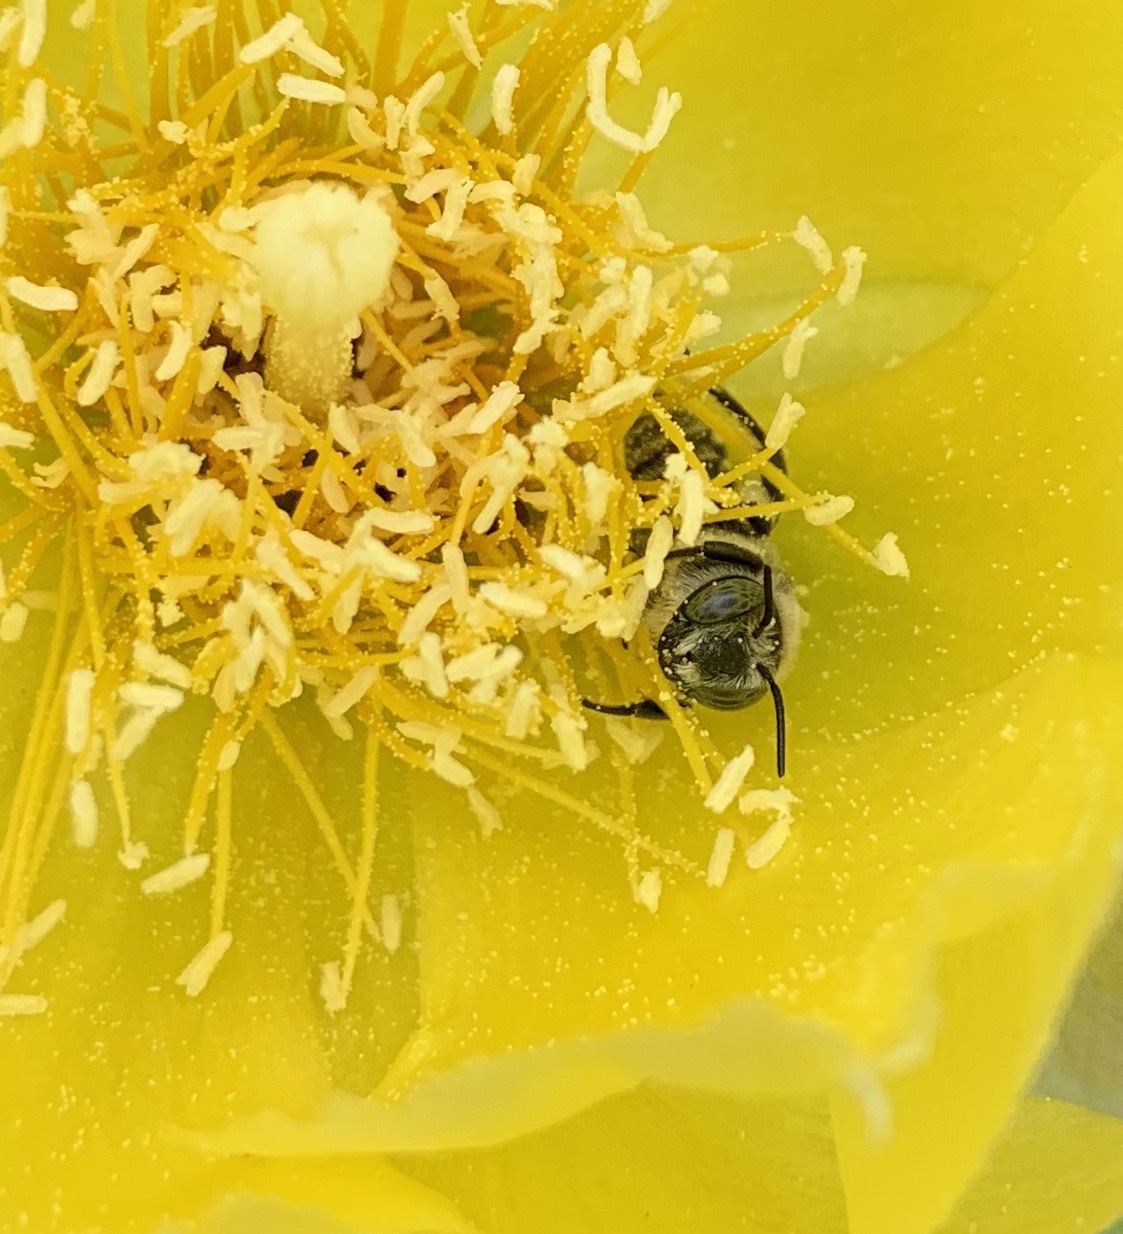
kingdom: Animalia
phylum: Arthropoda
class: Insecta
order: Hymenoptera
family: Megachilidae
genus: Lithurgopsis
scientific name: Lithurgopsis gibbosa
